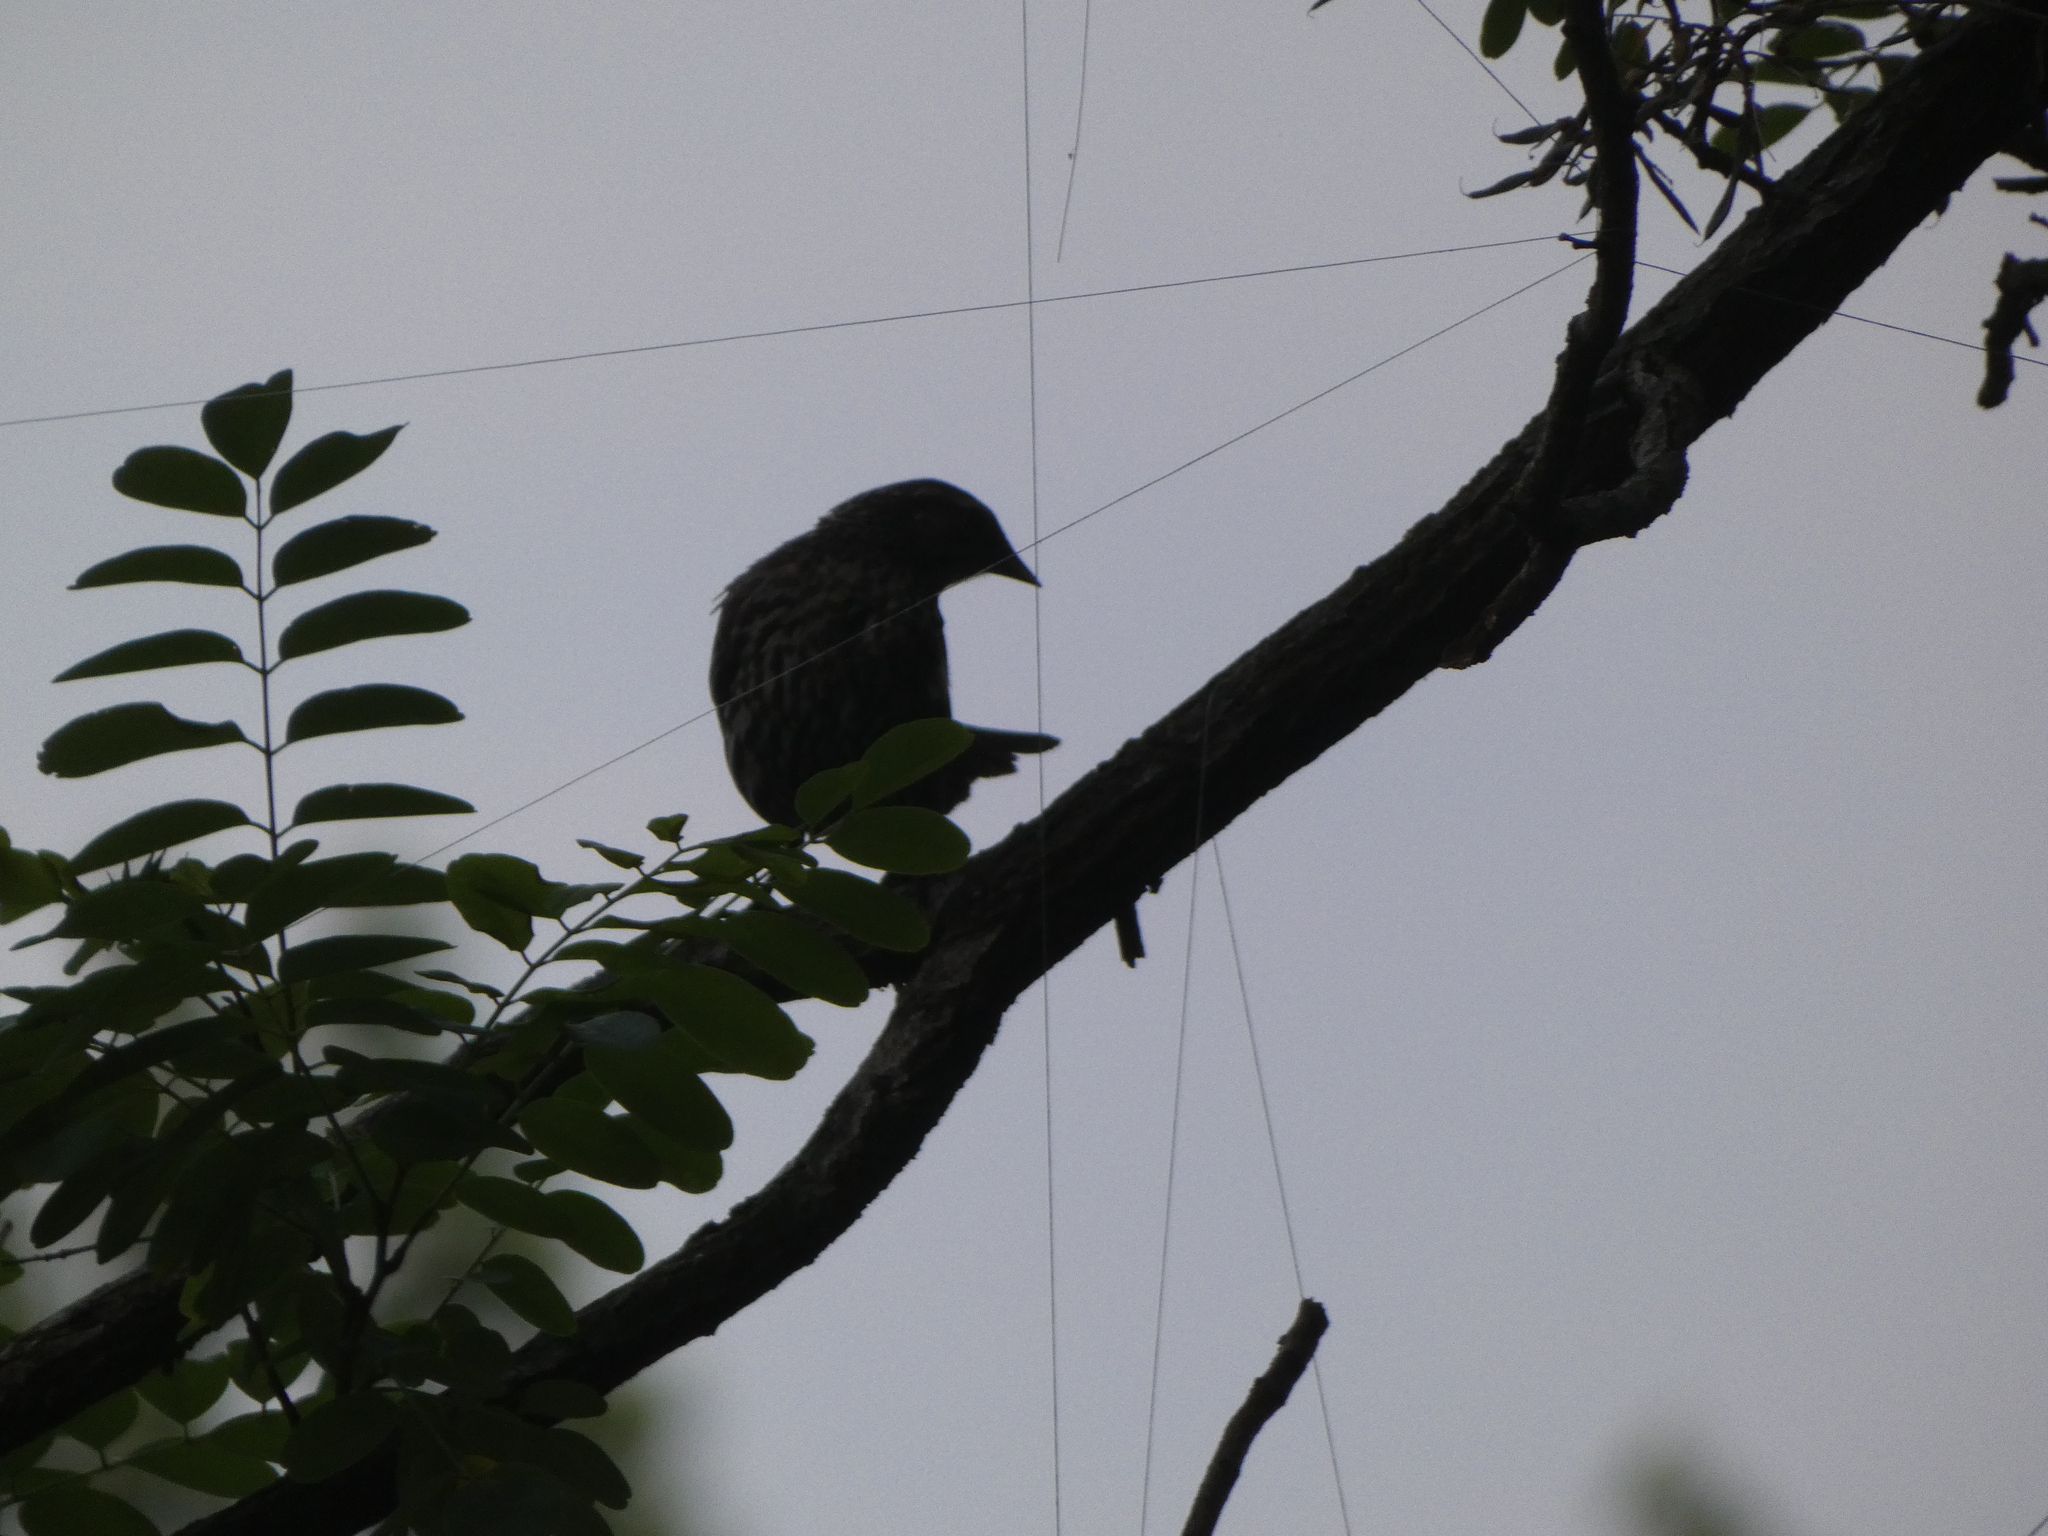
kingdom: Animalia
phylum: Chordata
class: Aves
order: Passeriformes
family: Icteridae
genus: Agelaius
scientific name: Agelaius phoeniceus
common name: Red-winged blackbird
